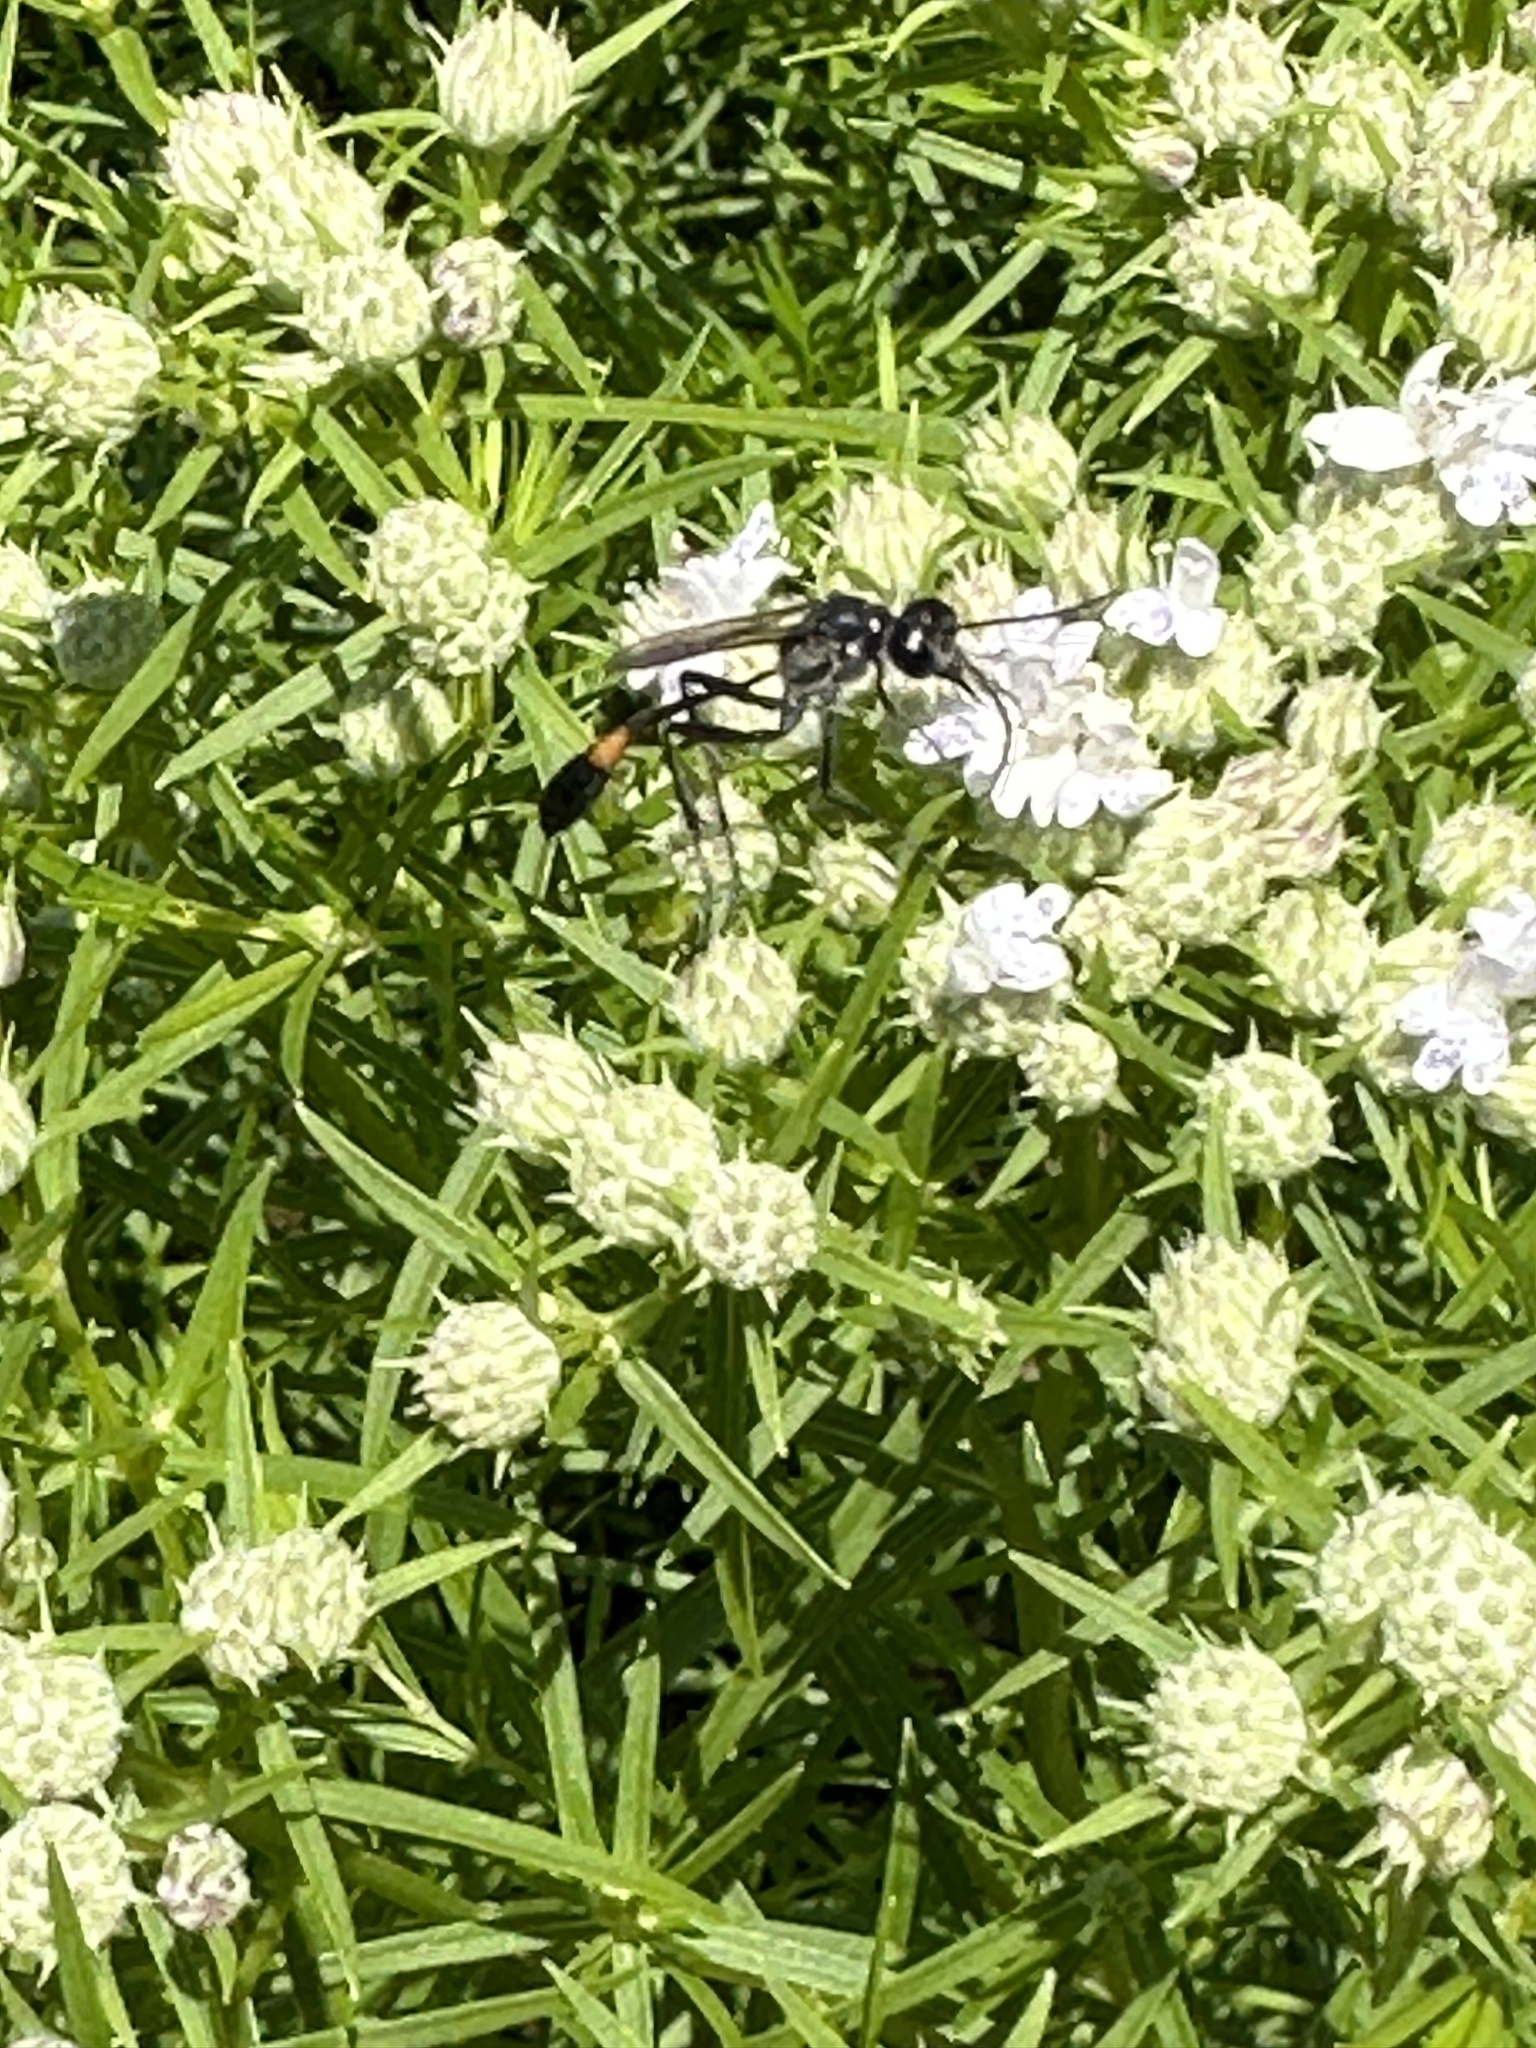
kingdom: Animalia
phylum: Arthropoda
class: Insecta
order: Hymenoptera
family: Sphecidae
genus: Ammophila
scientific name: Ammophila procera
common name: Common thread-waisted wasp
